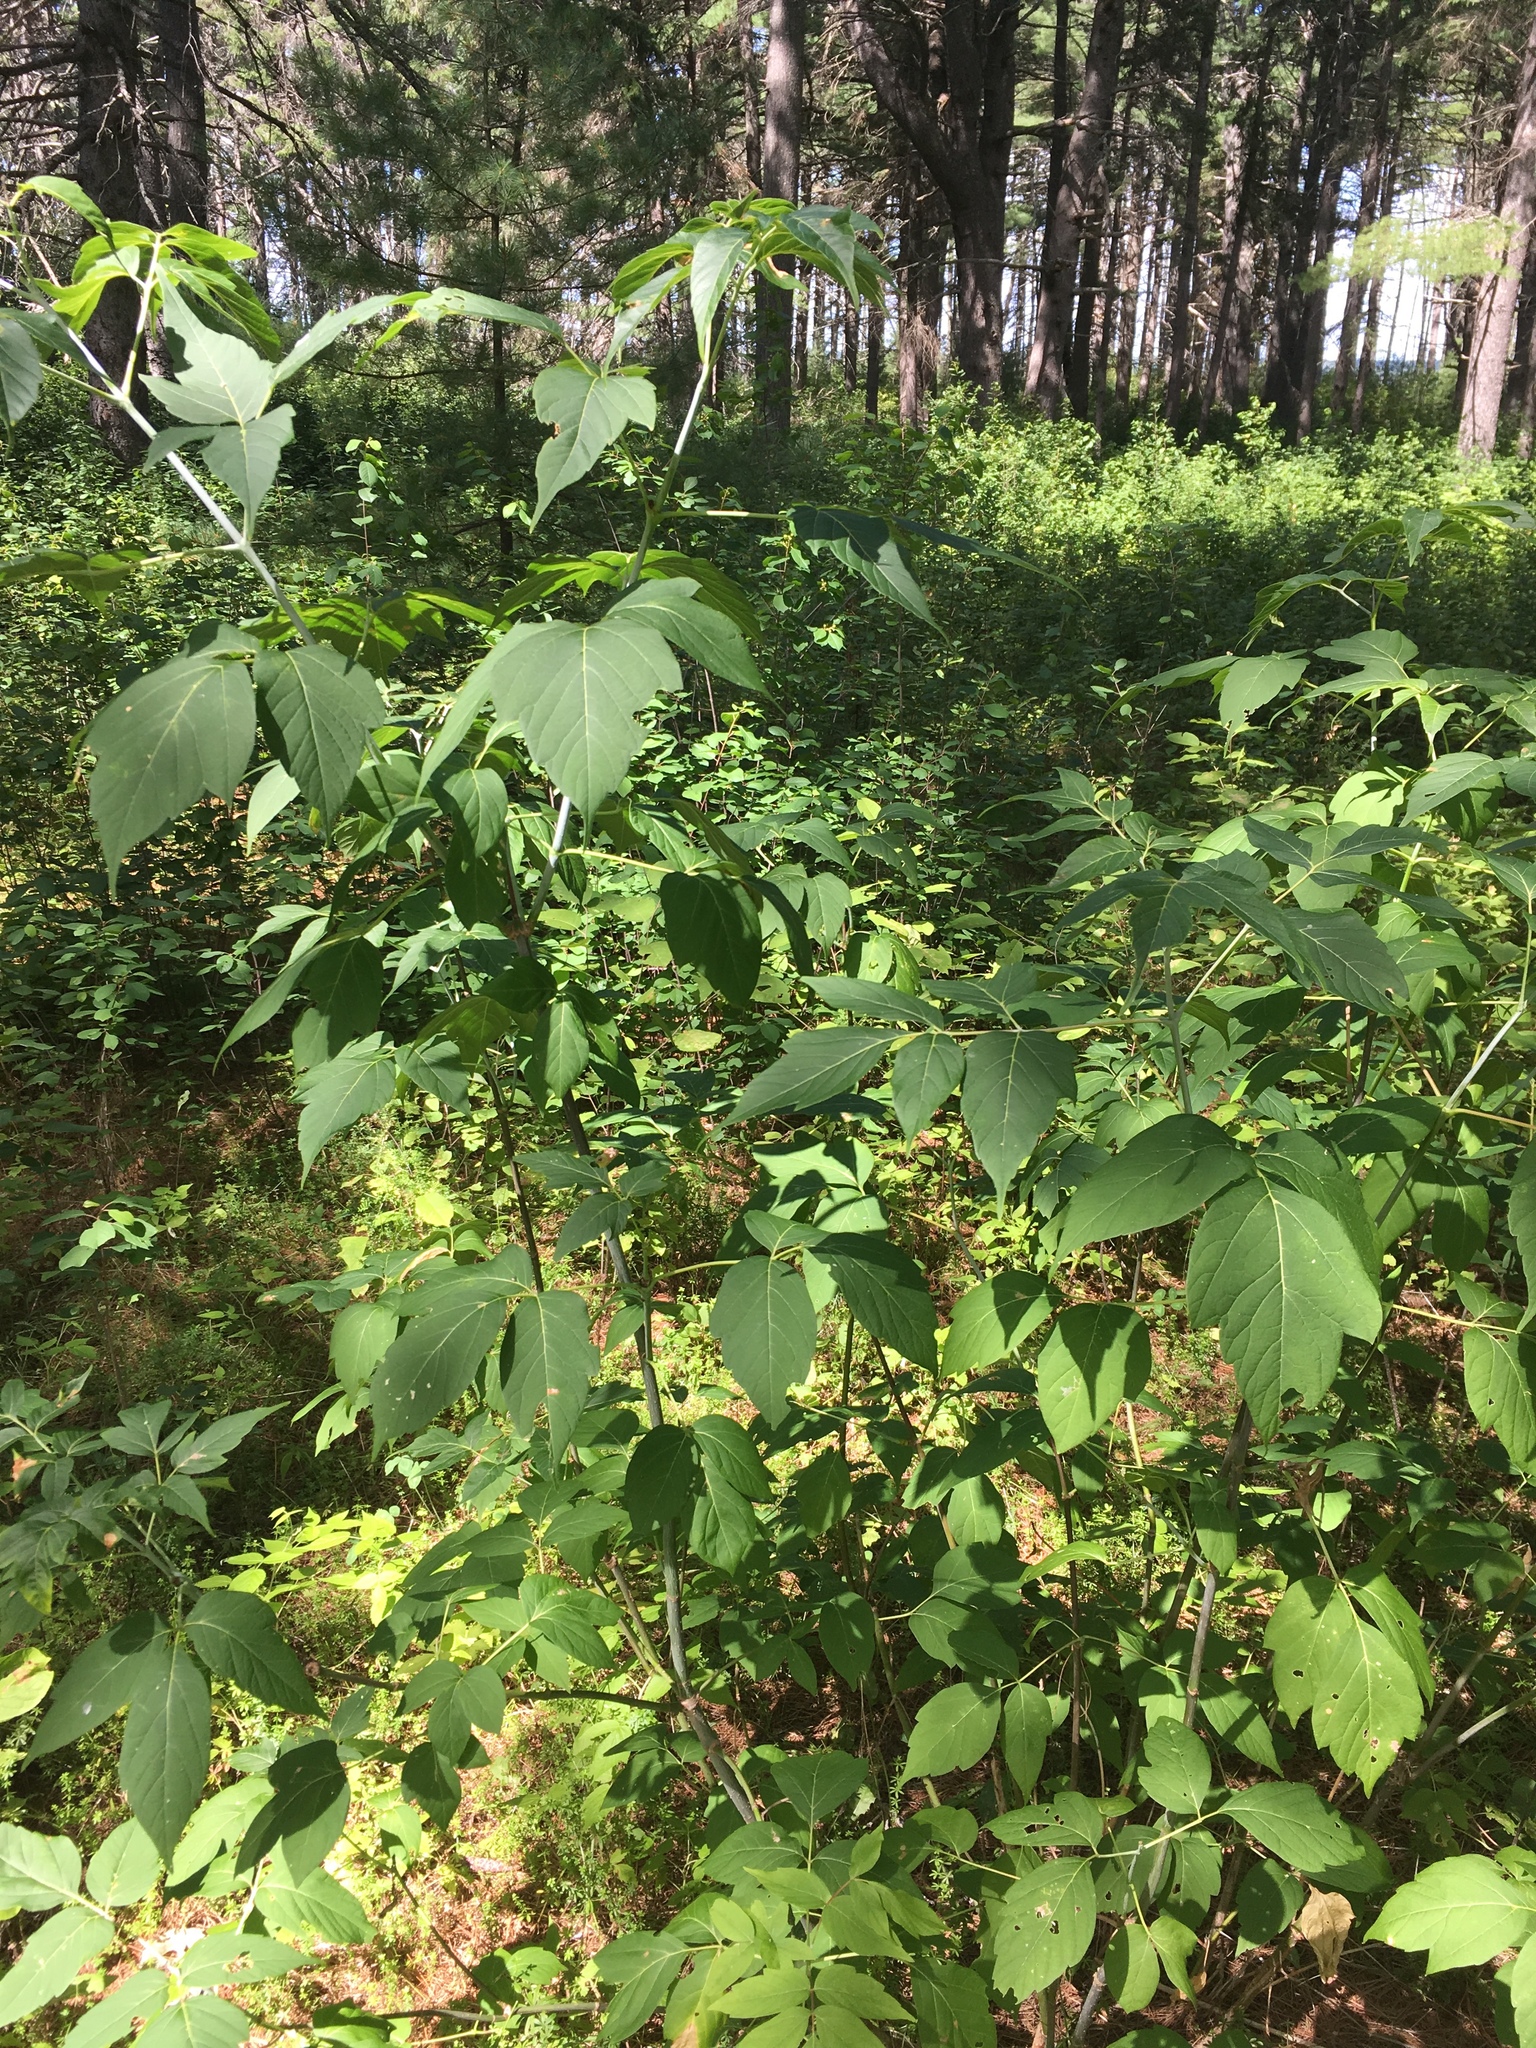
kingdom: Plantae
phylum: Tracheophyta
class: Magnoliopsida
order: Sapindales
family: Sapindaceae
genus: Acer
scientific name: Acer negundo
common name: Ashleaf maple
